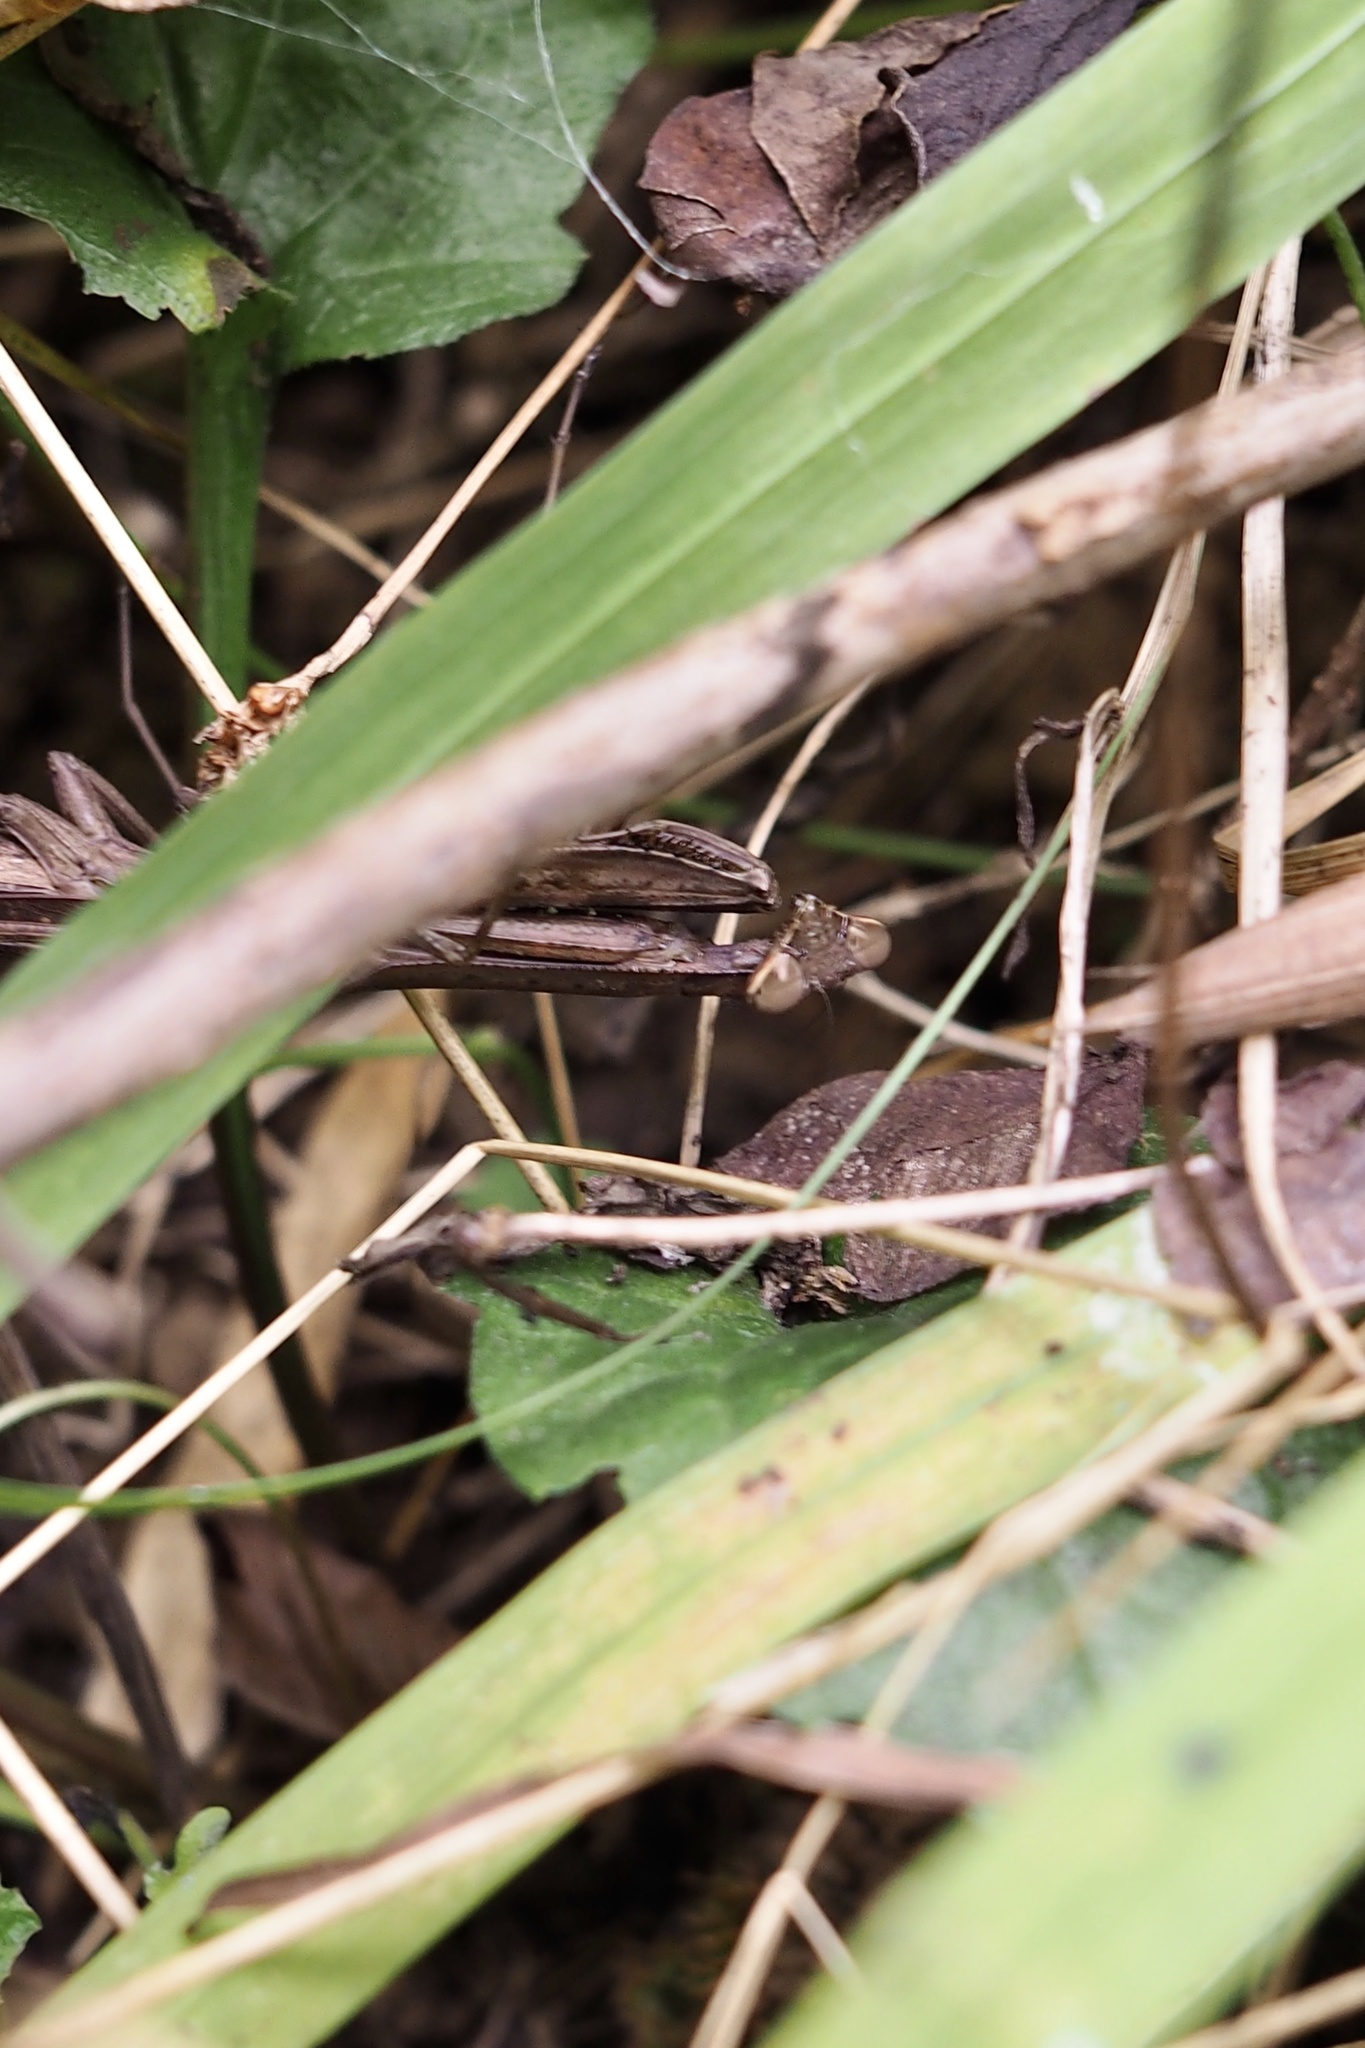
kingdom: Animalia
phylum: Arthropoda
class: Insecta
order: Mantodea
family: Mantidae
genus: Statilia
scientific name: Statilia maculata
